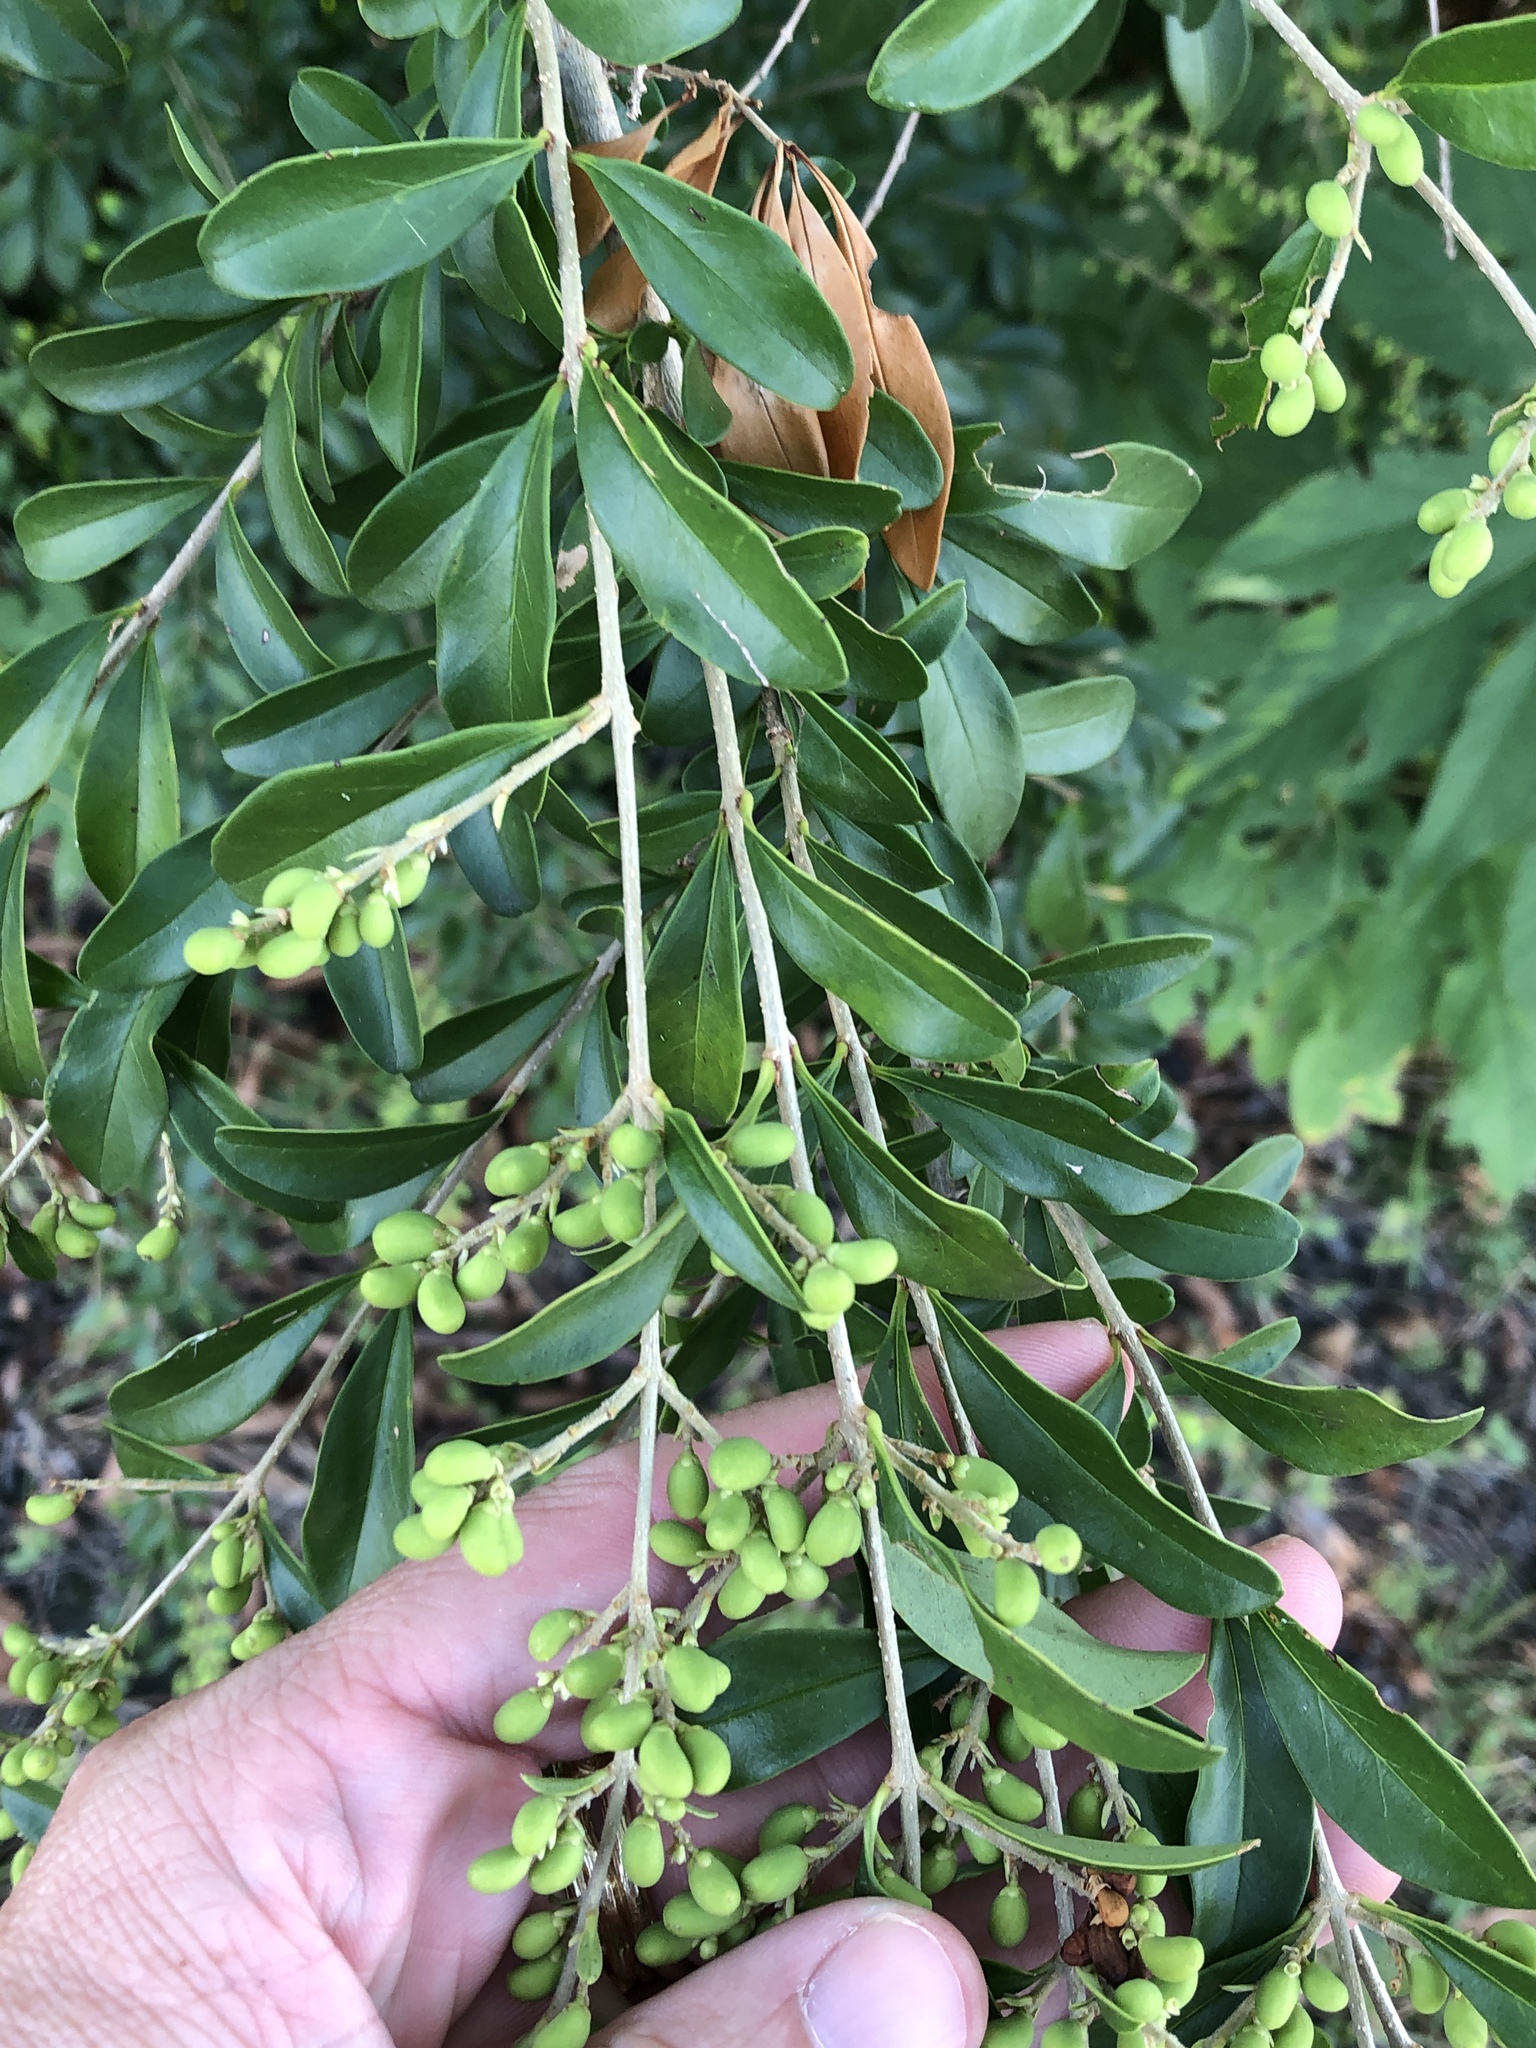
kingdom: Plantae
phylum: Tracheophyta
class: Magnoliopsida
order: Lamiales
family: Oleaceae
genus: Ligustrum
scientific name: Ligustrum quihoui
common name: Waxyleaf privet
